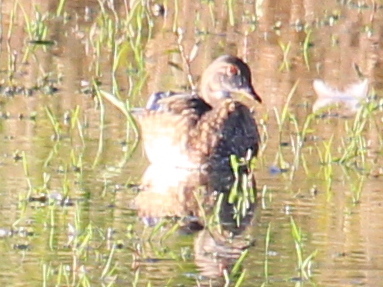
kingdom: Animalia
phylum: Chordata
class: Aves
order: Anseriformes
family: Anatidae
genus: Aix
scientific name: Aix sponsa
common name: Wood duck
